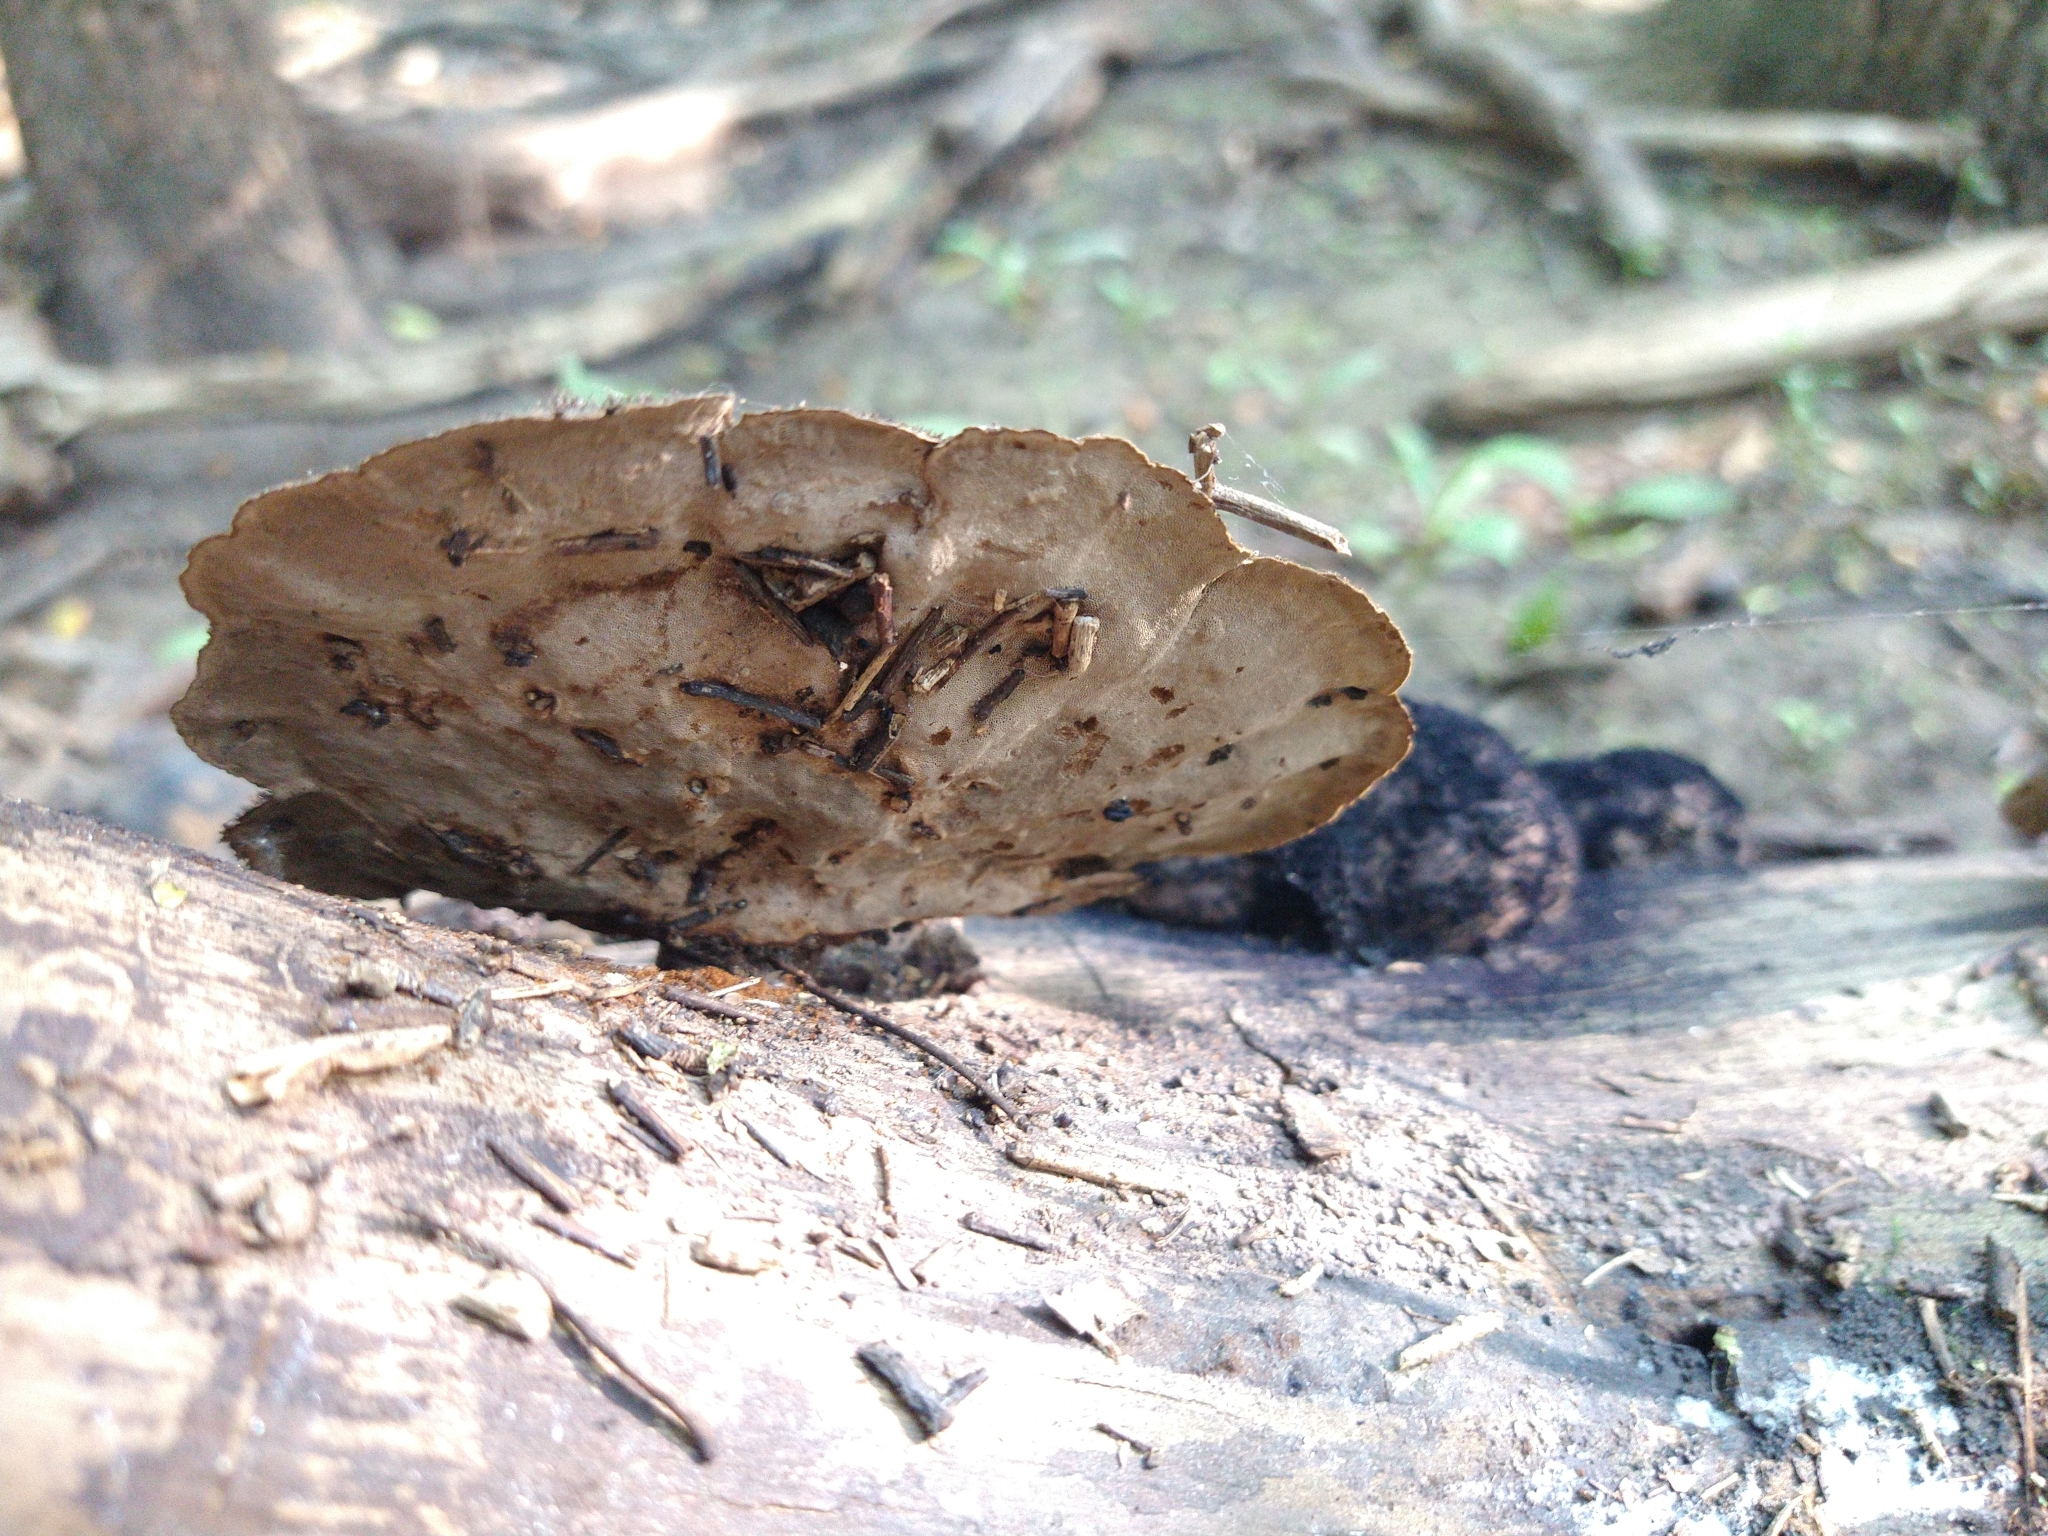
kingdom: Fungi
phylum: Basidiomycota
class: Agaricomycetes
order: Polyporales
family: Cerrenaceae
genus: Cerrena
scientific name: Cerrena hydnoides
